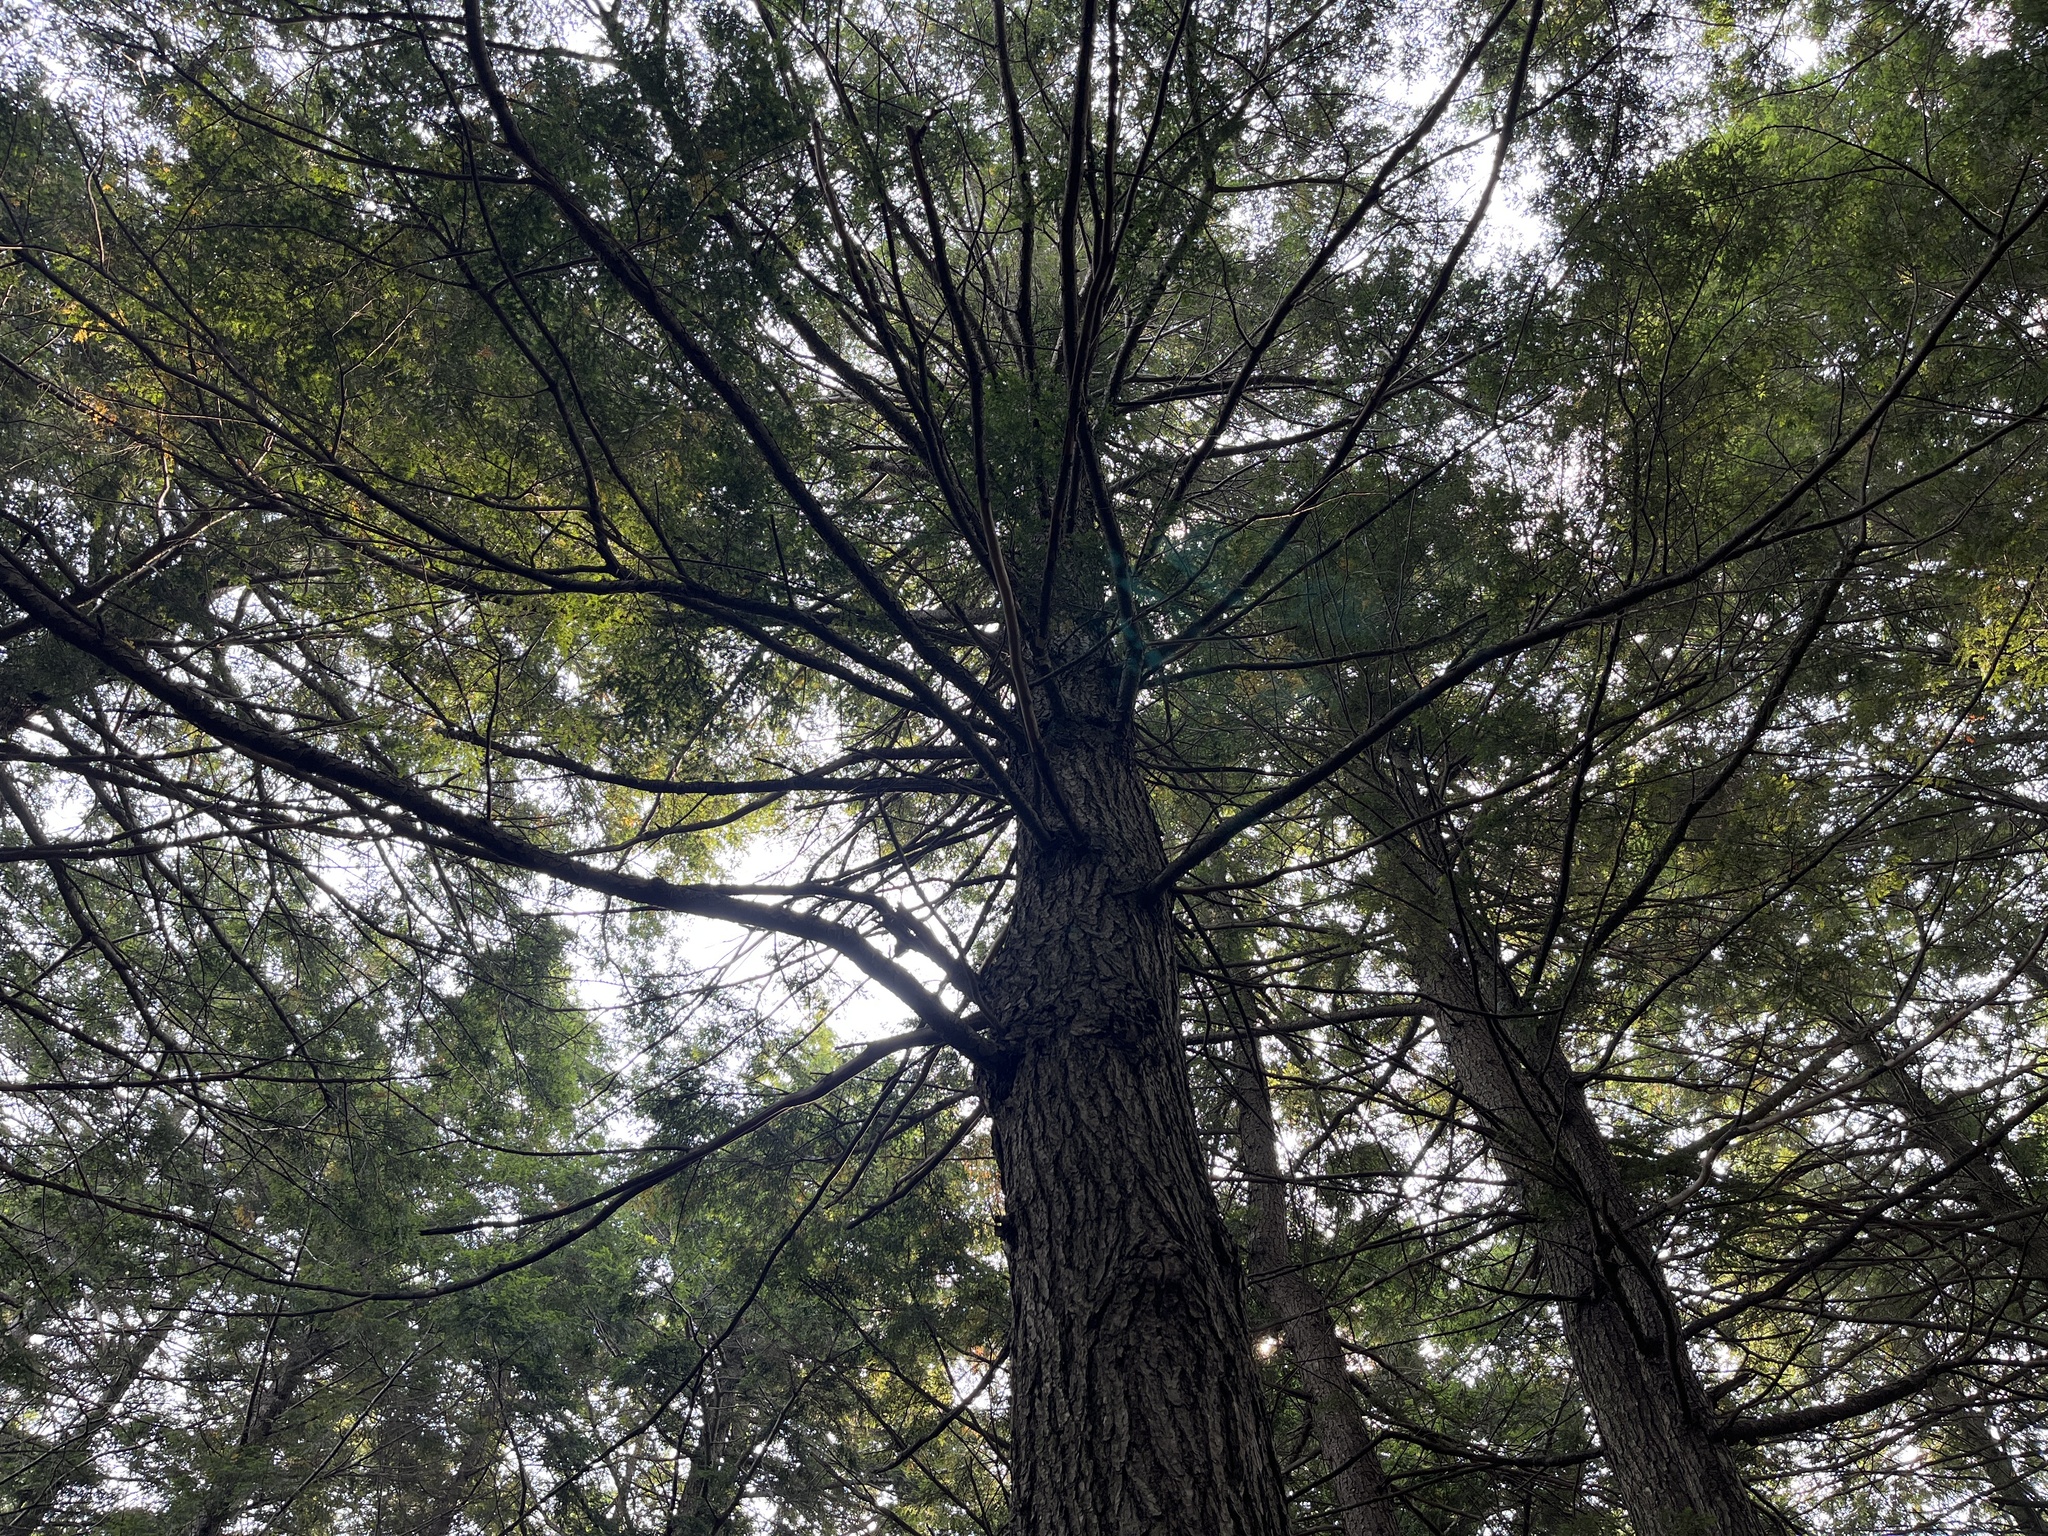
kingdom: Plantae
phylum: Tracheophyta
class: Pinopsida
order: Pinales
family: Pinaceae
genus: Tsuga
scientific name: Tsuga canadensis
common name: Eastern hemlock
